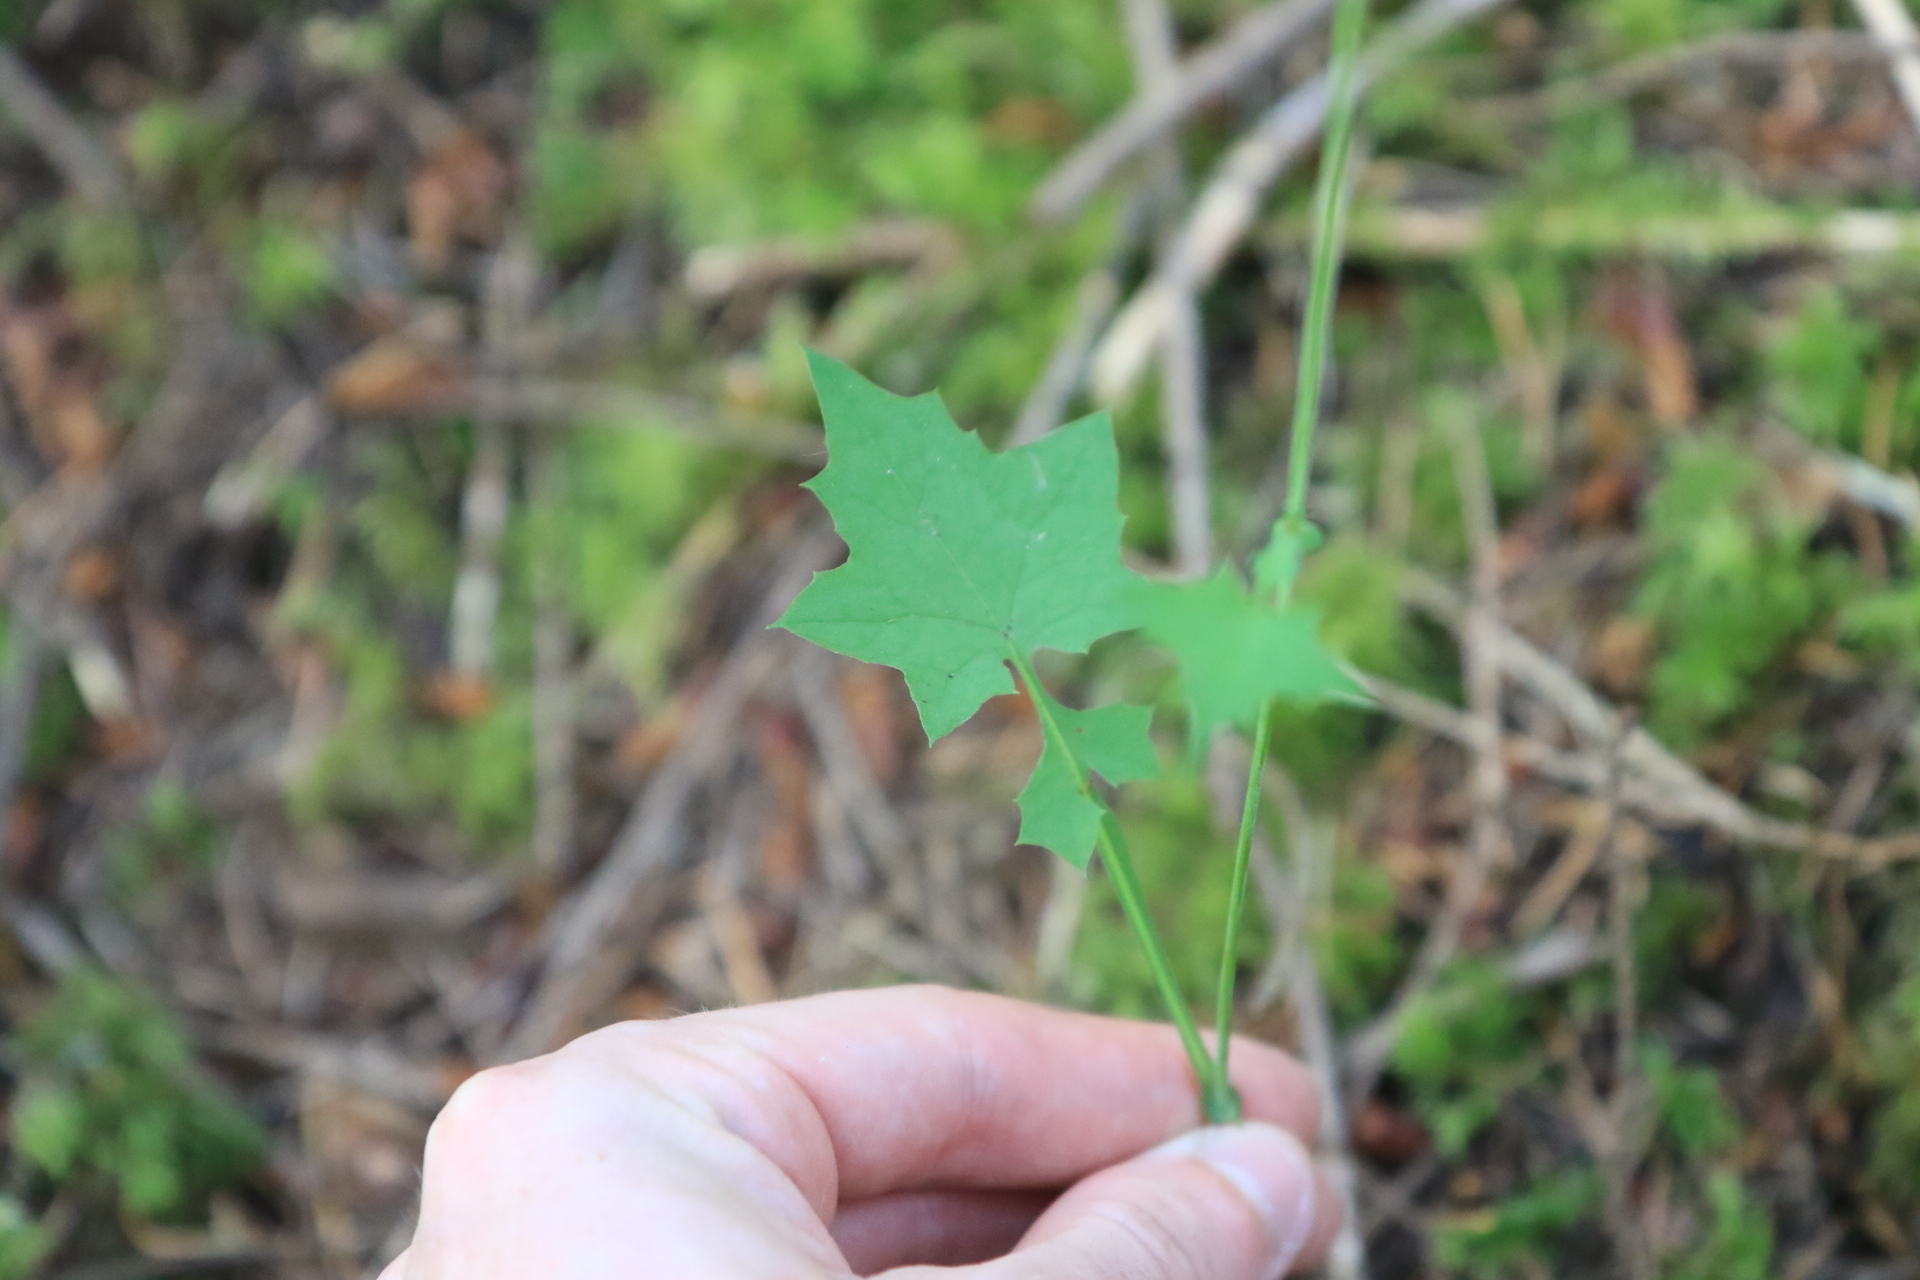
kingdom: Plantae
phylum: Tracheophyta
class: Magnoliopsida
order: Asterales
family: Asteraceae
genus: Mycelis
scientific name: Mycelis muralis
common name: Wall lettuce
